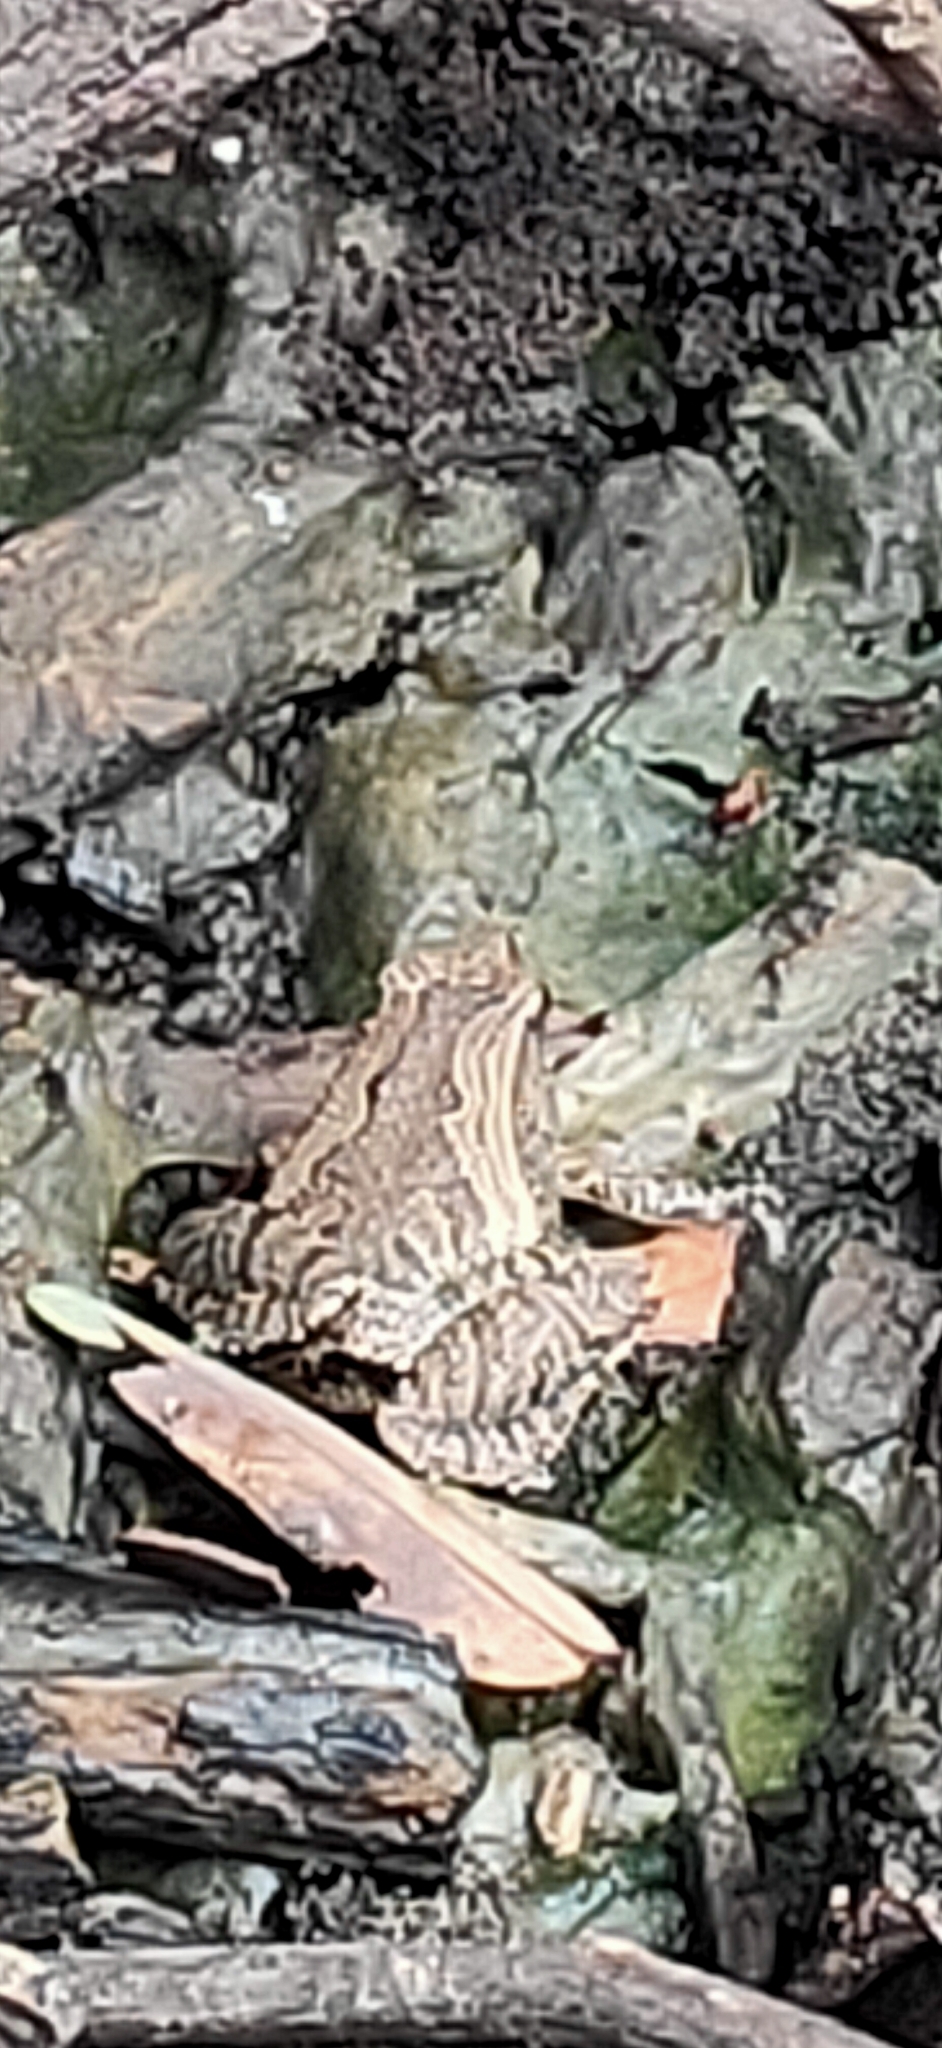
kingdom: Animalia
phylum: Chordata
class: Amphibia
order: Anura
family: Microhylidae
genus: Microhyla
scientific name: Microhyla mukhlesuri
